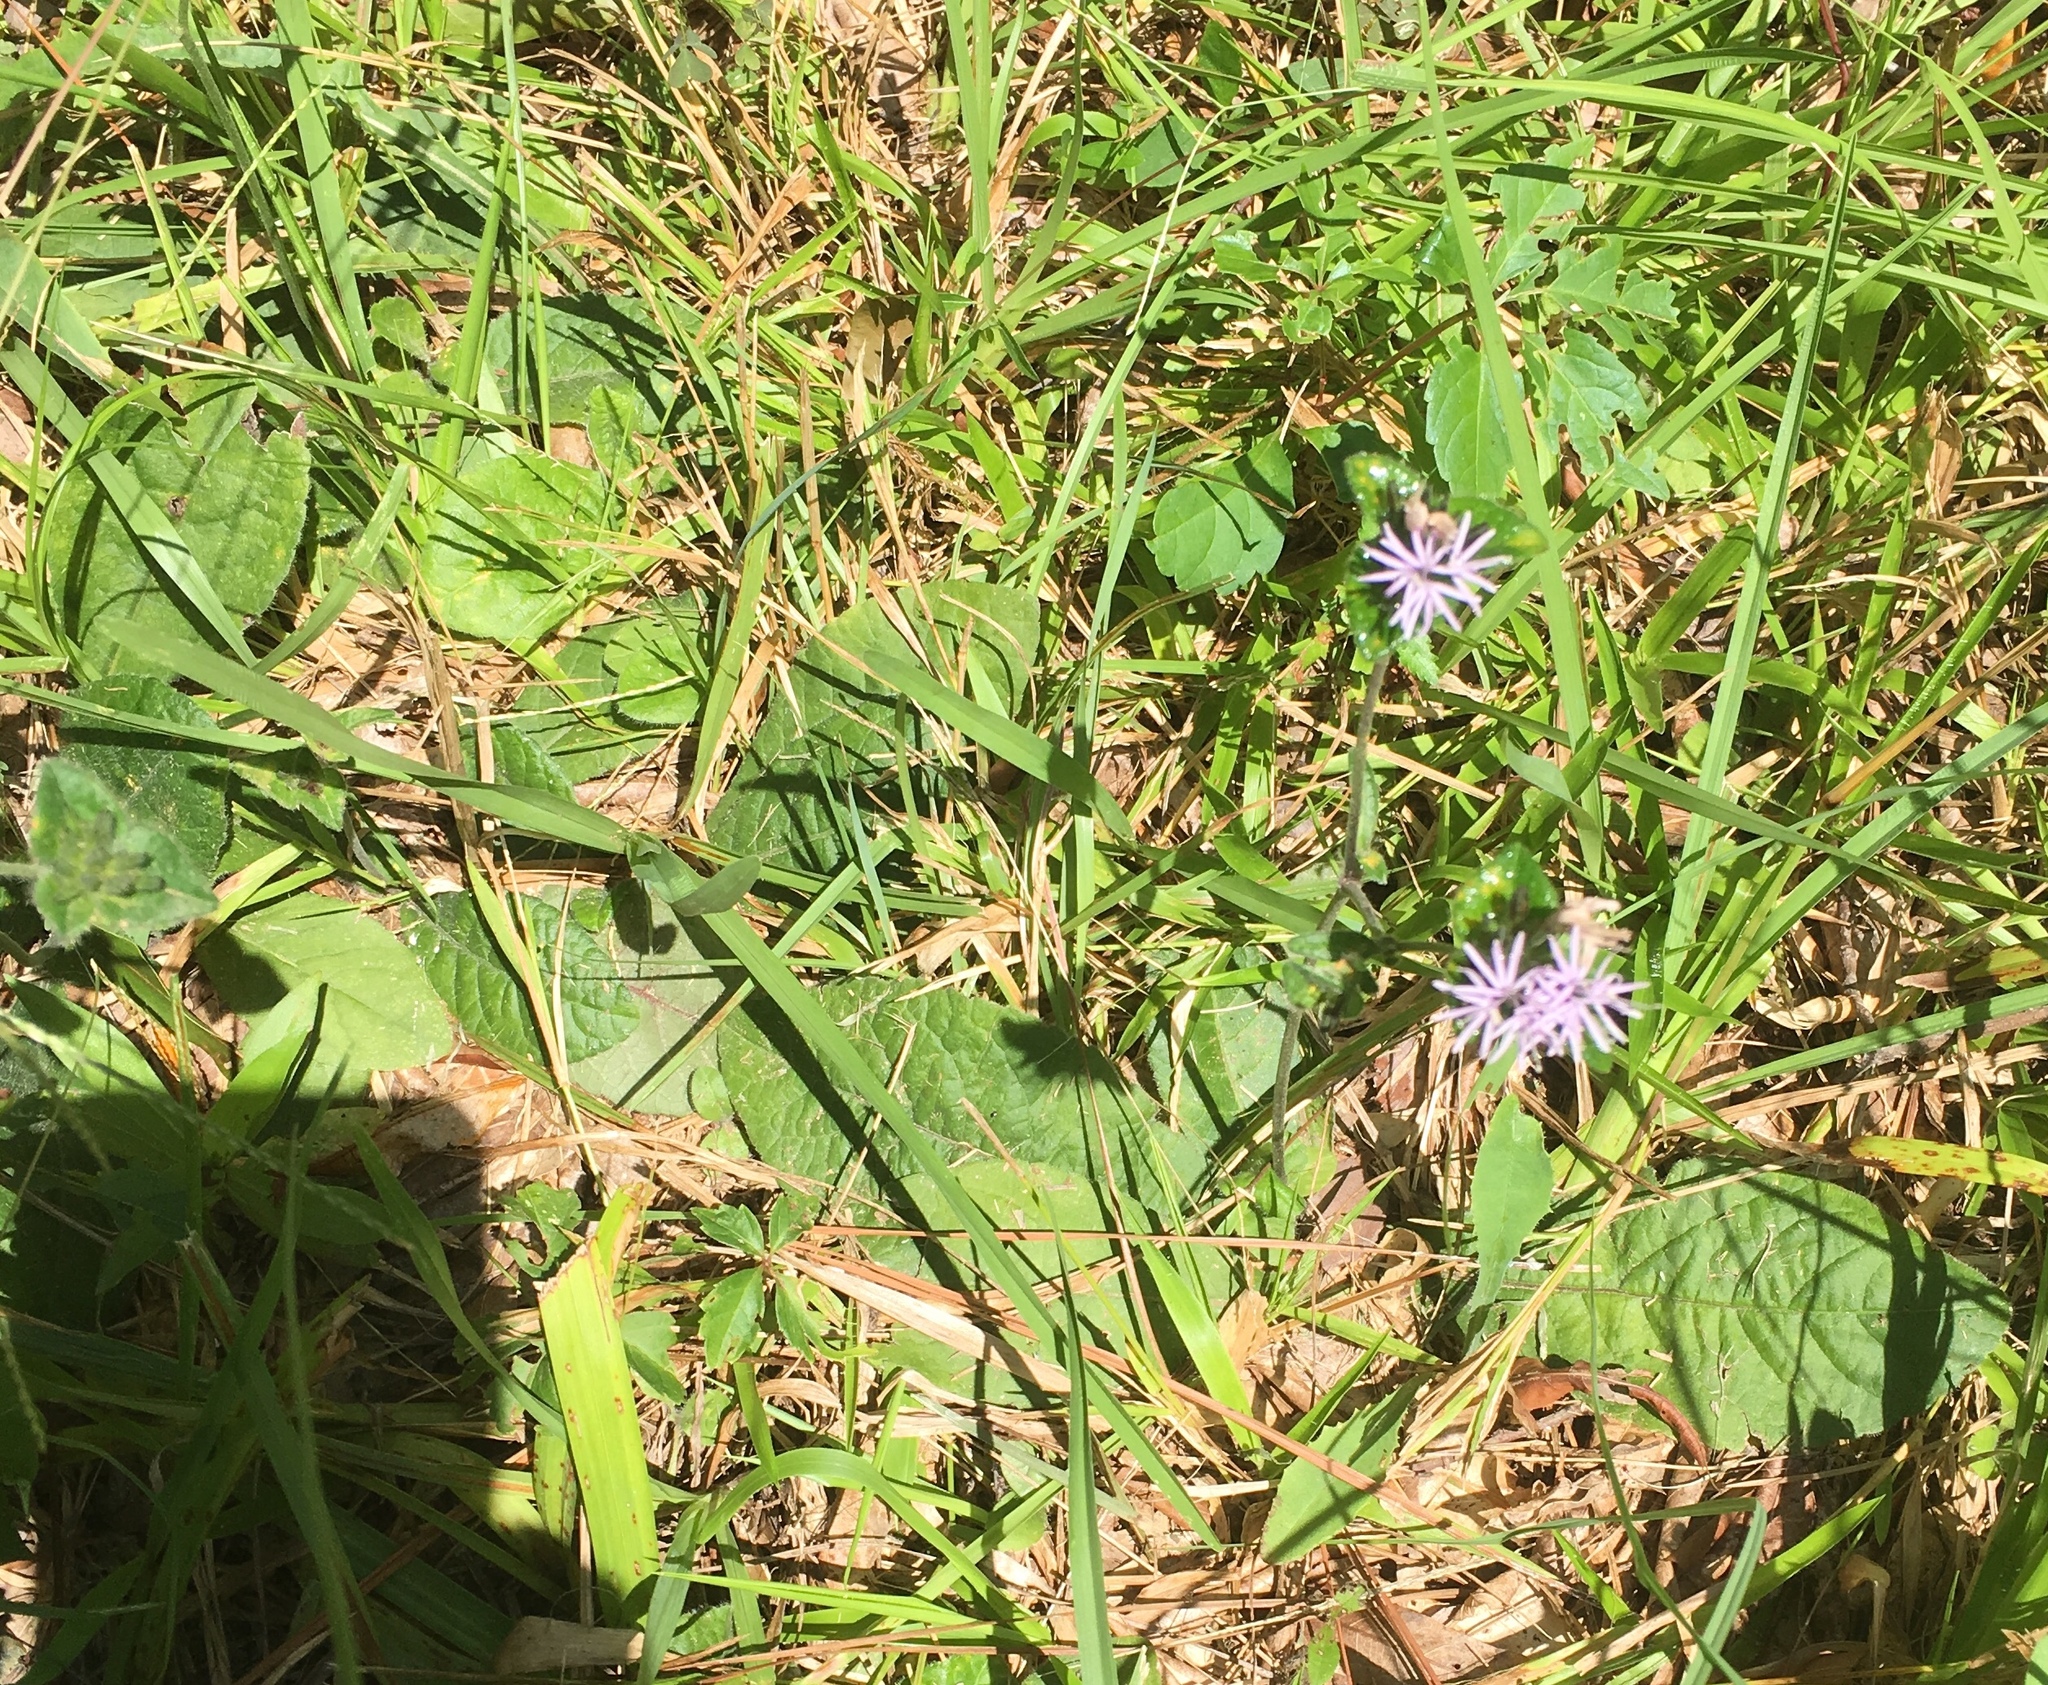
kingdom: Plantae
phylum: Tracheophyta
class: Magnoliopsida
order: Asterales
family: Asteraceae
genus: Elephantopus
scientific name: Elephantopus tomentosus
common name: Tobacco-weed
